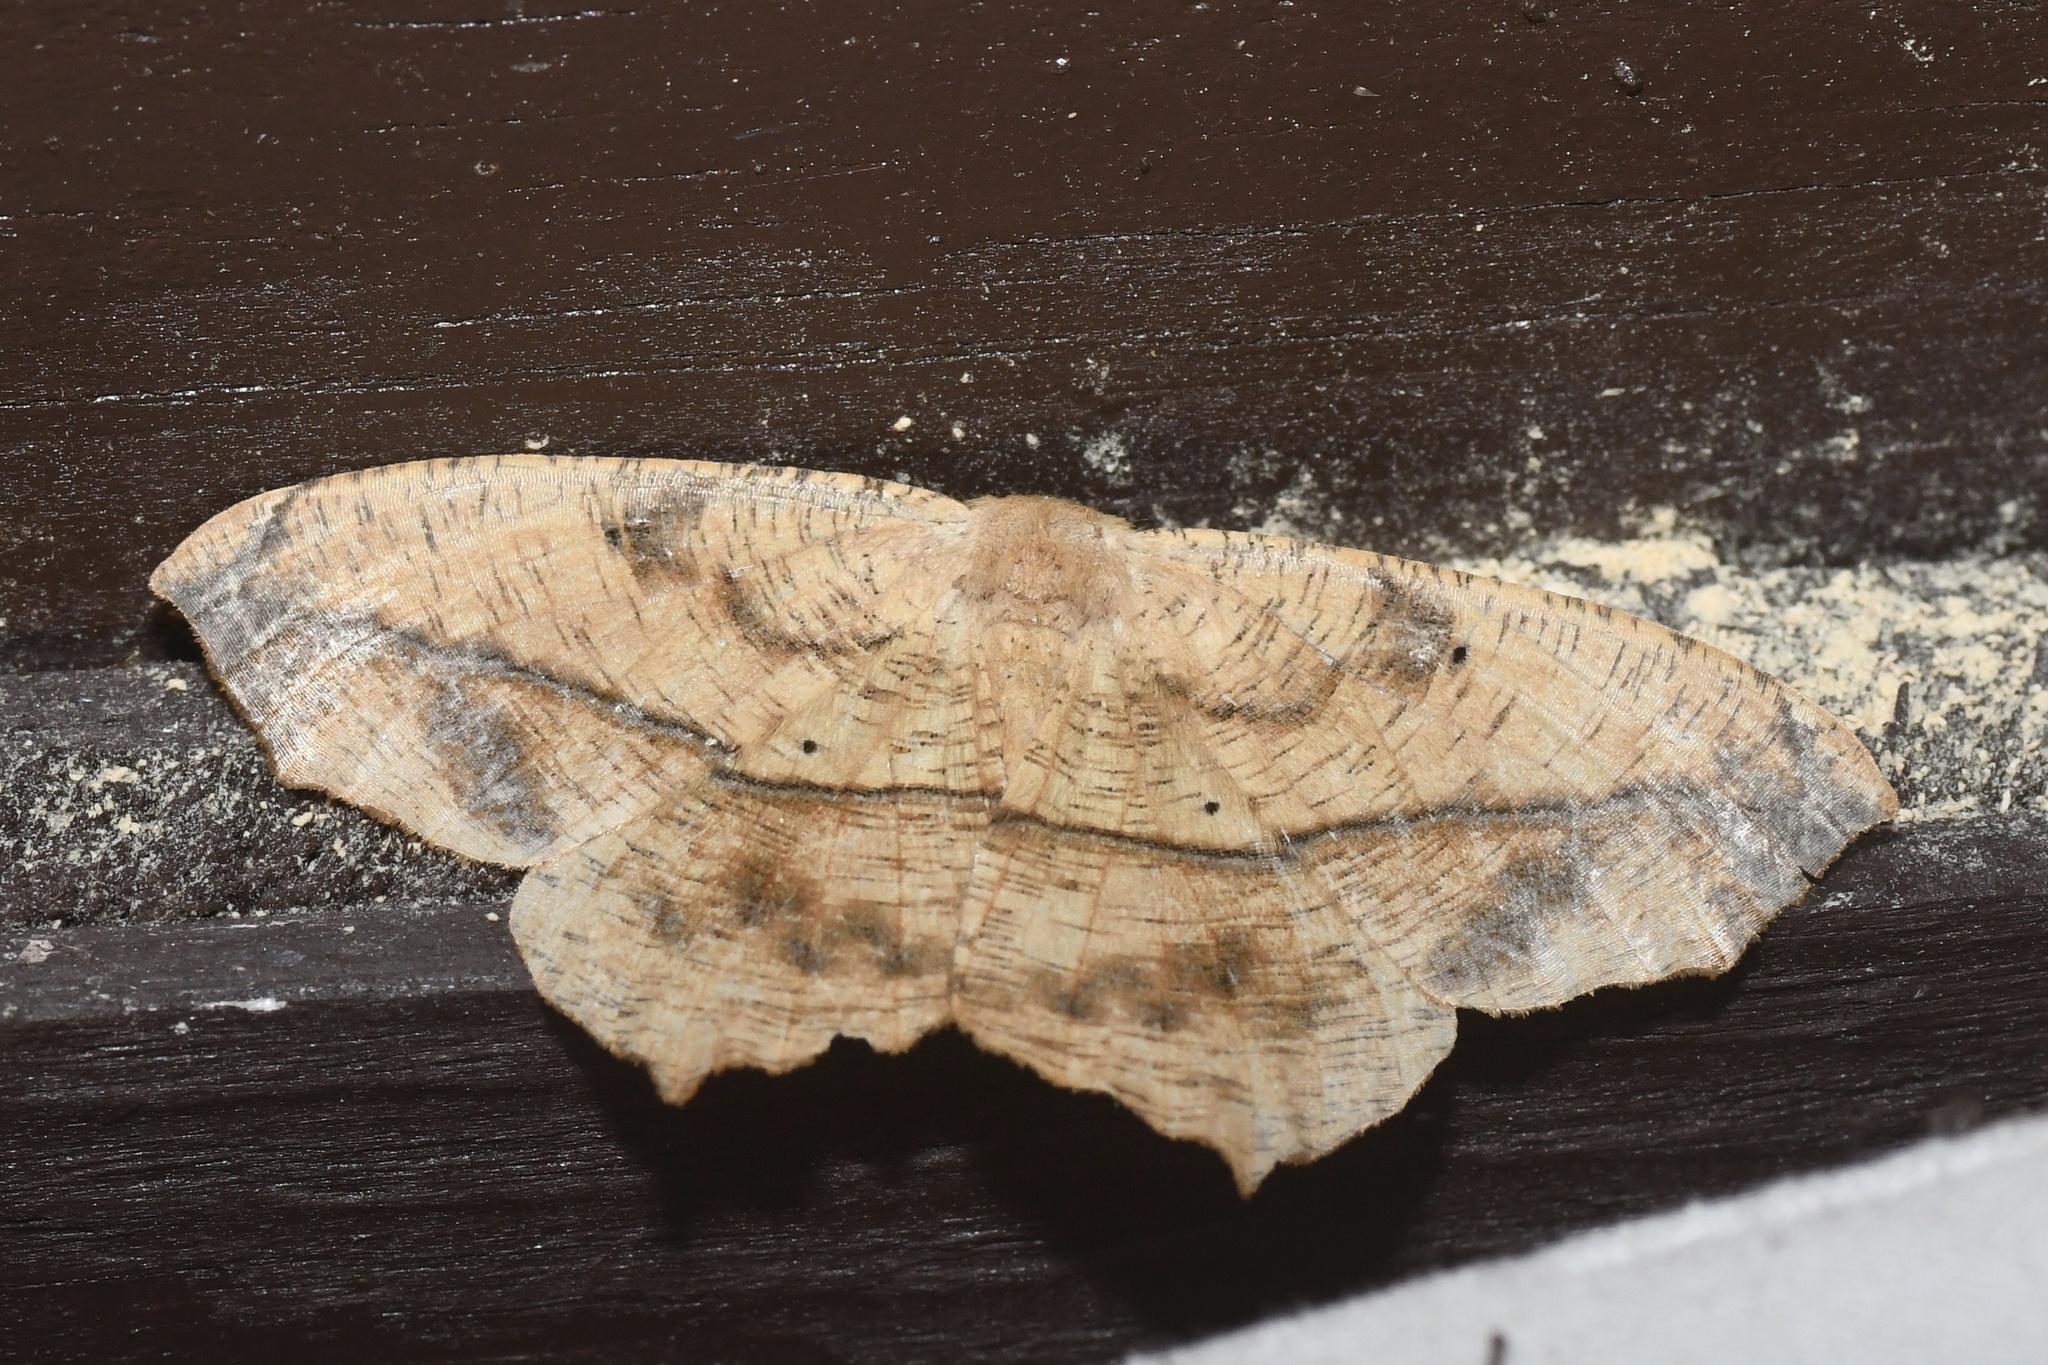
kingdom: Animalia
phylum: Arthropoda
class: Insecta
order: Lepidoptera
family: Geometridae
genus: Prochoerodes
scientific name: Prochoerodes lineola
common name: Large maple spanworm
